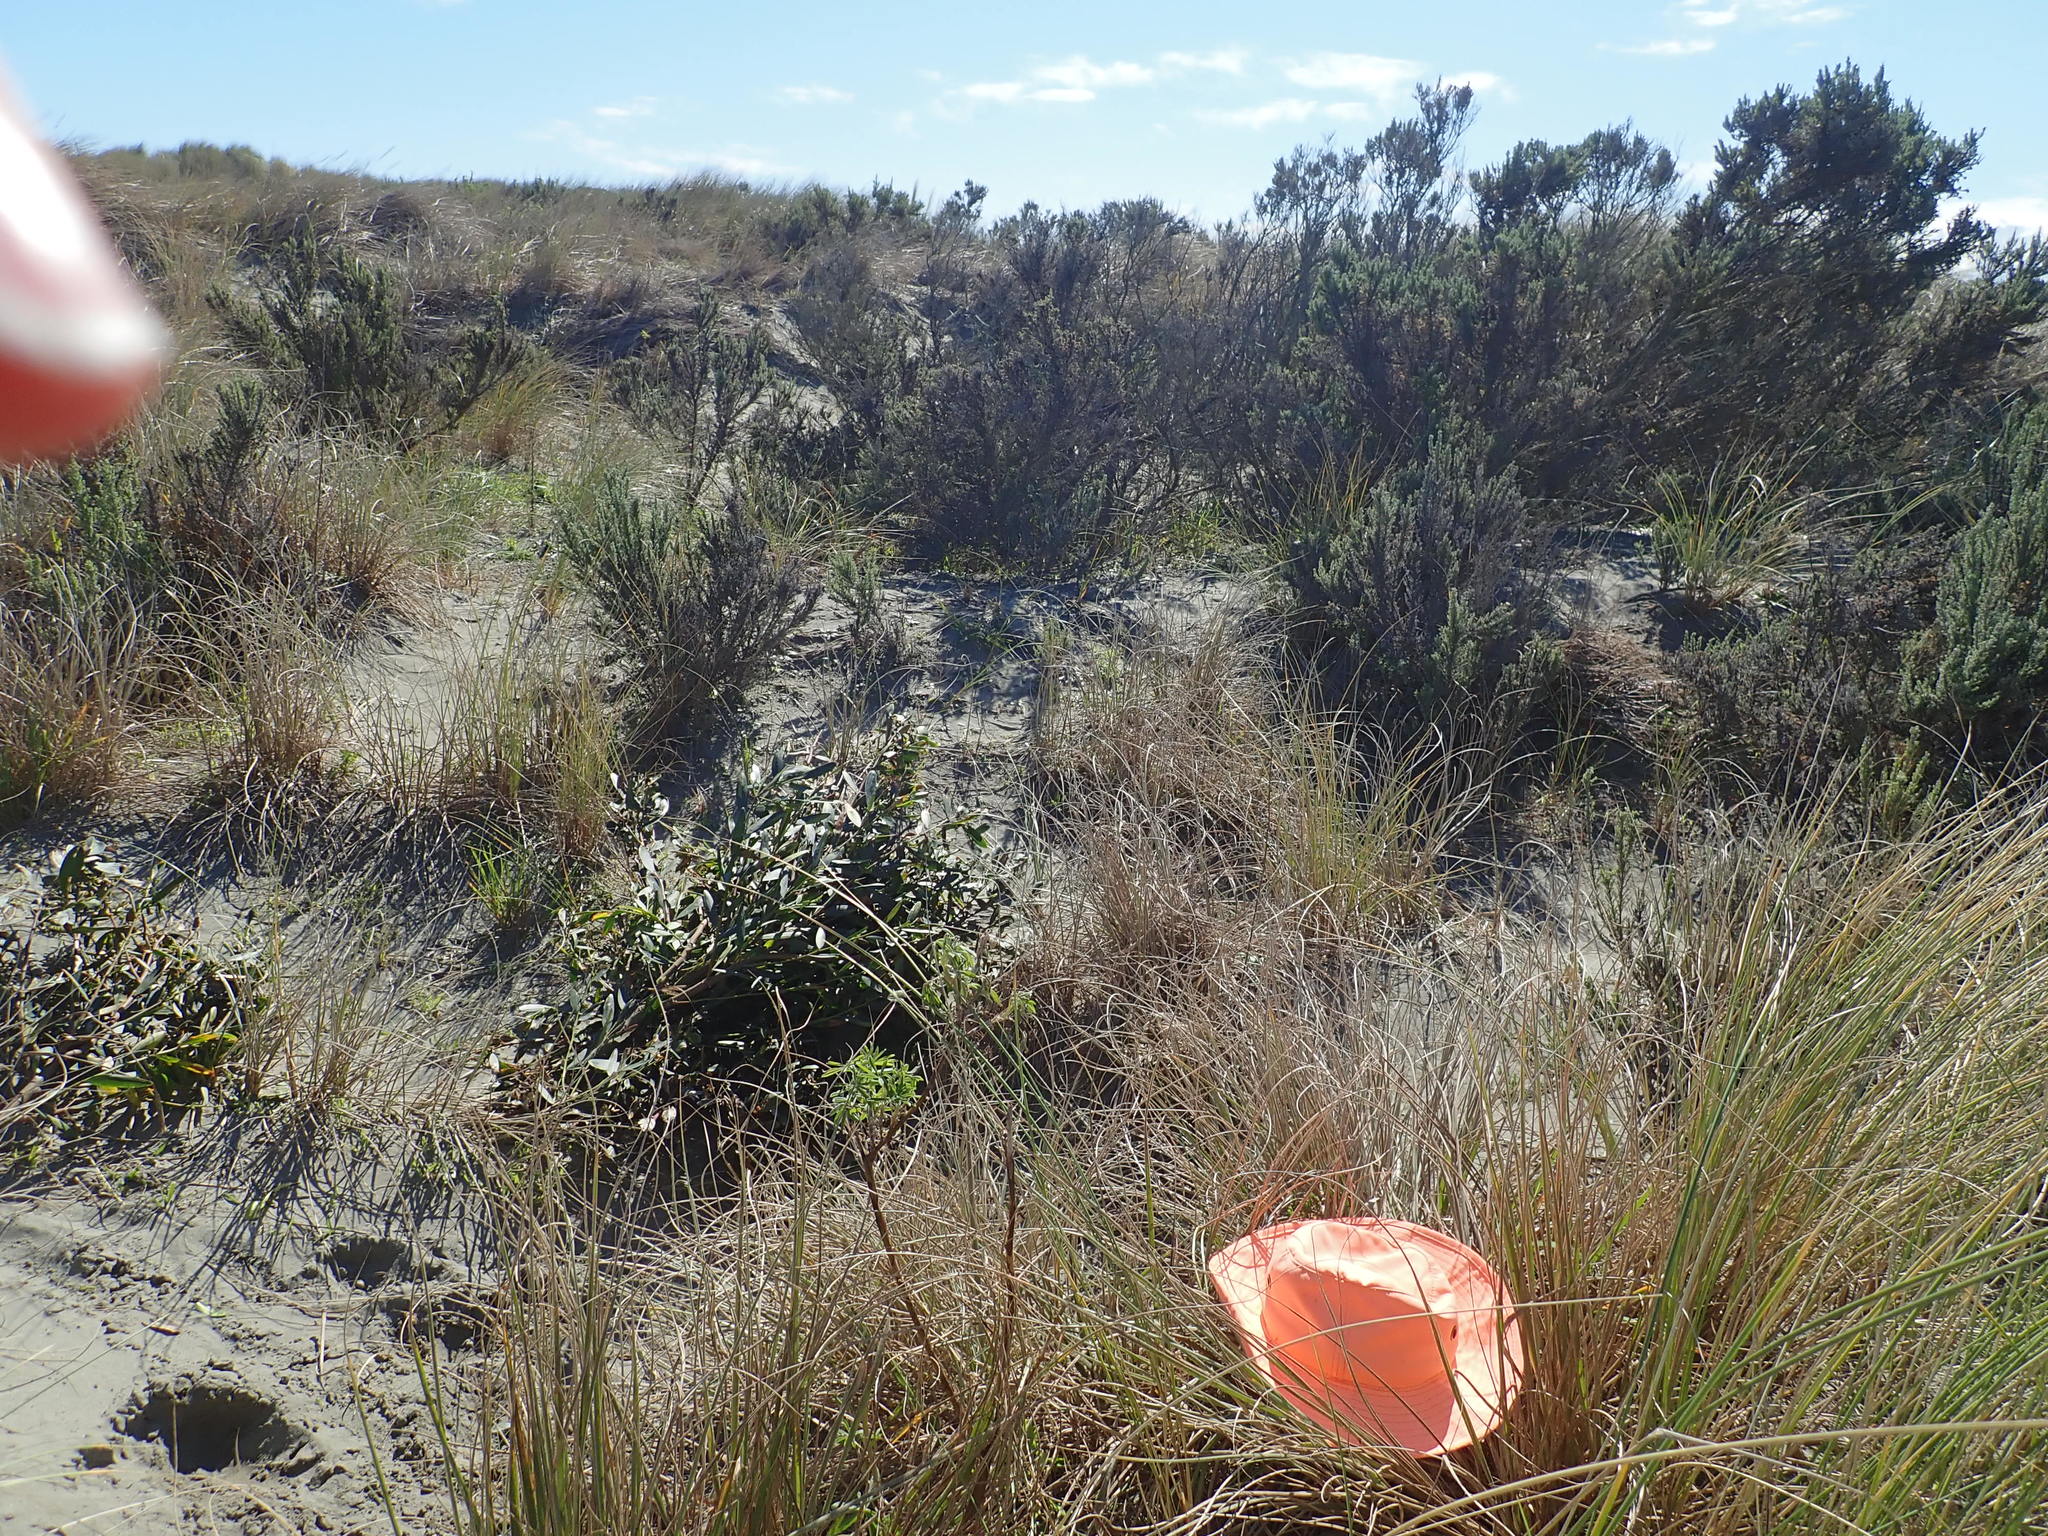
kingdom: Plantae
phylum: Tracheophyta
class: Magnoliopsida
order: Fabales
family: Fabaceae
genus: Acacia
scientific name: Acacia longifolia
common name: Sydney golden wattle
